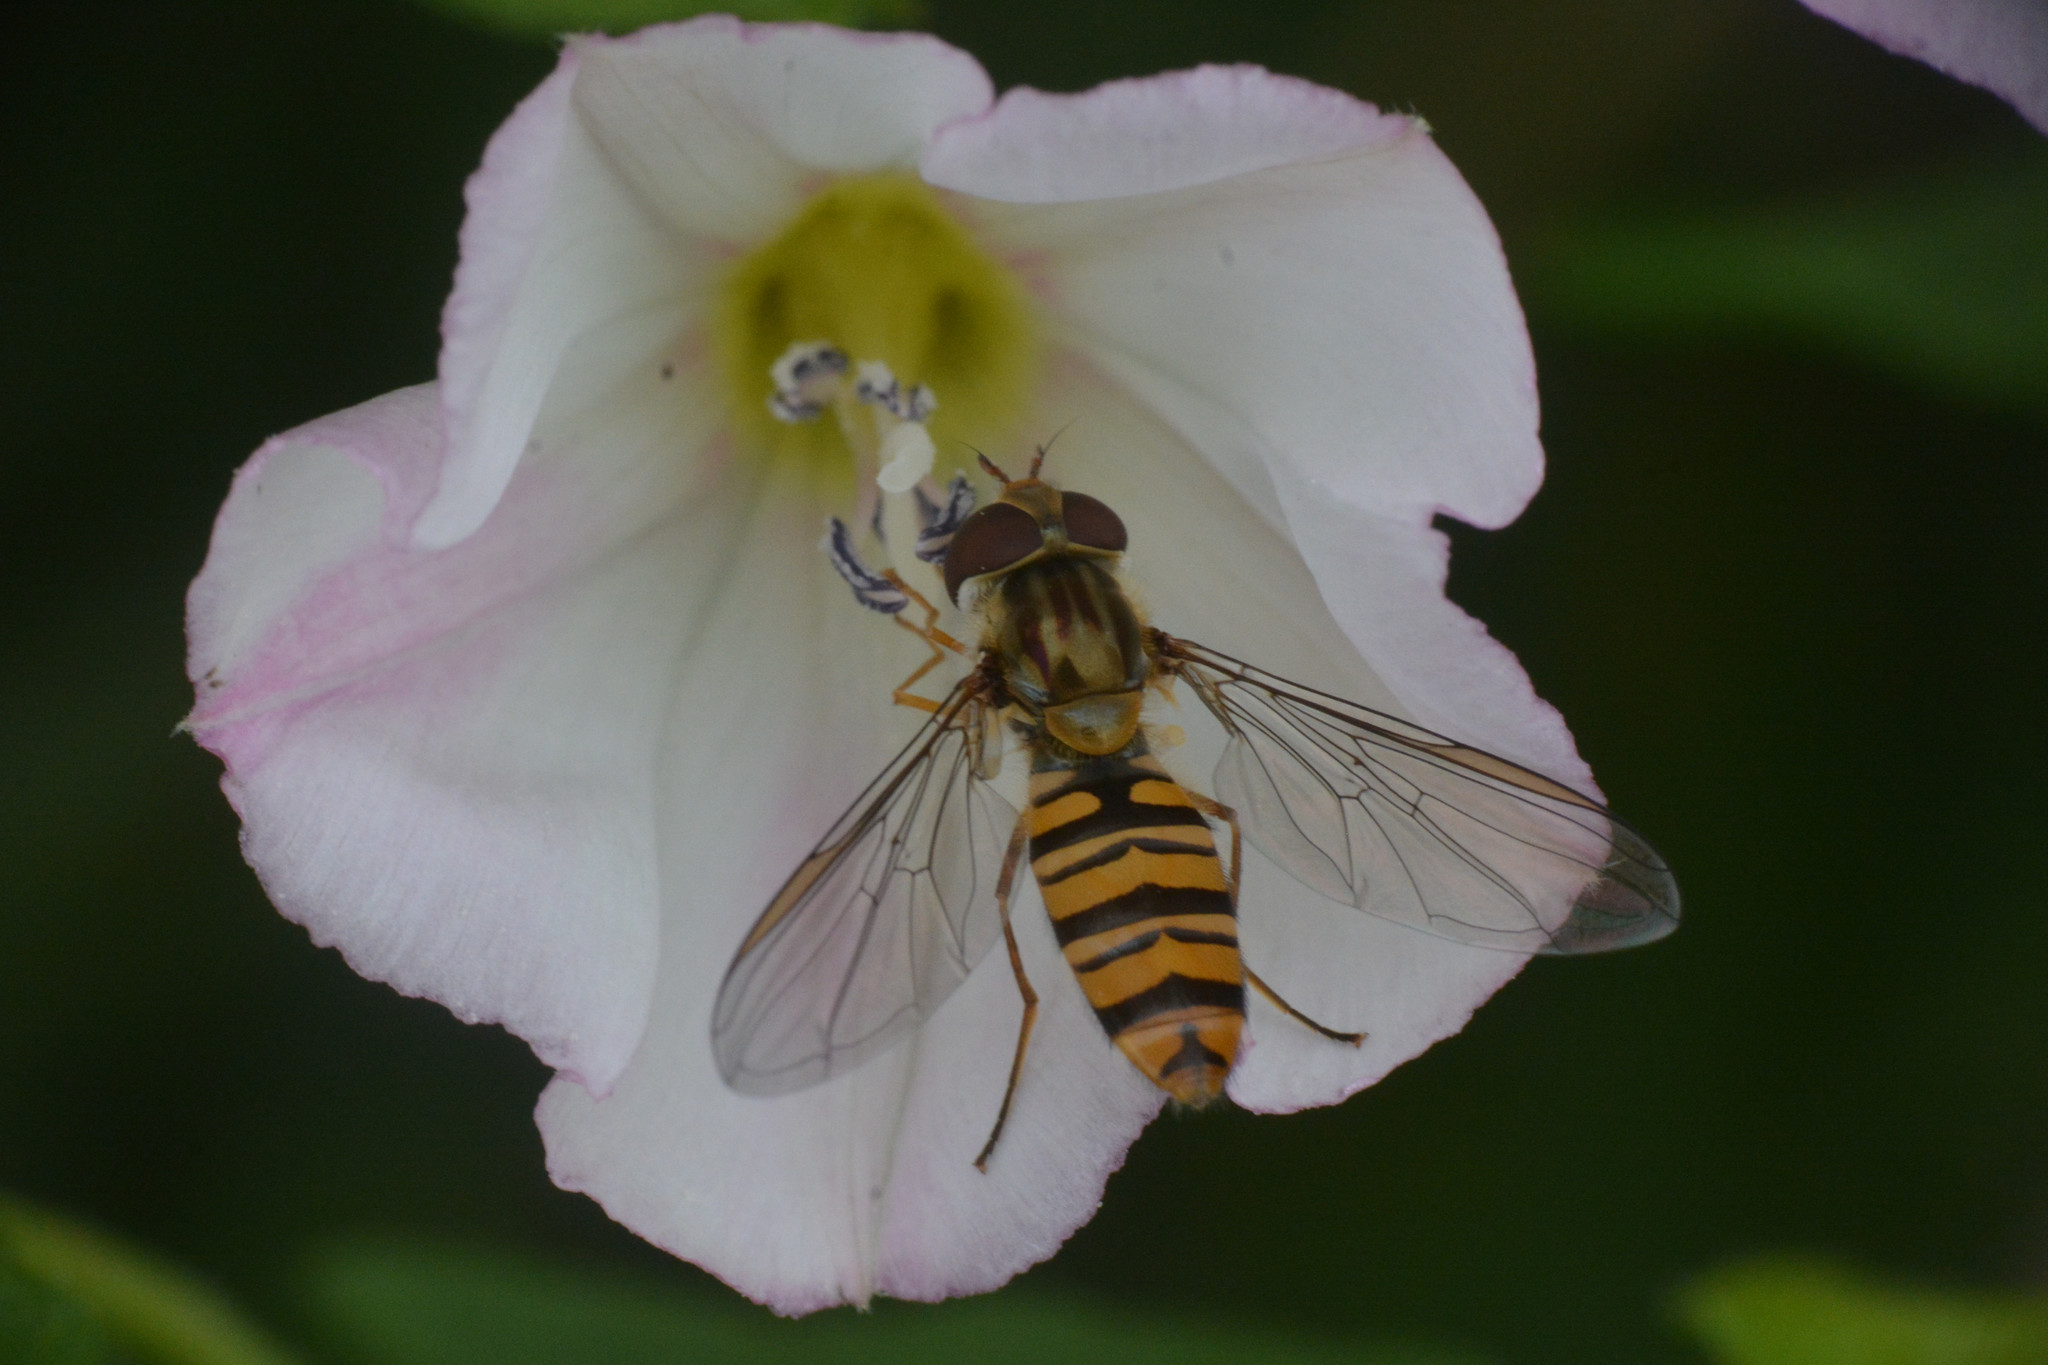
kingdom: Animalia
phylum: Arthropoda
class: Insecta
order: Diptera
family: Syrphidae
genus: Episyrphus
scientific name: Episyrphus balteatus
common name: Marmalade hoverfly
